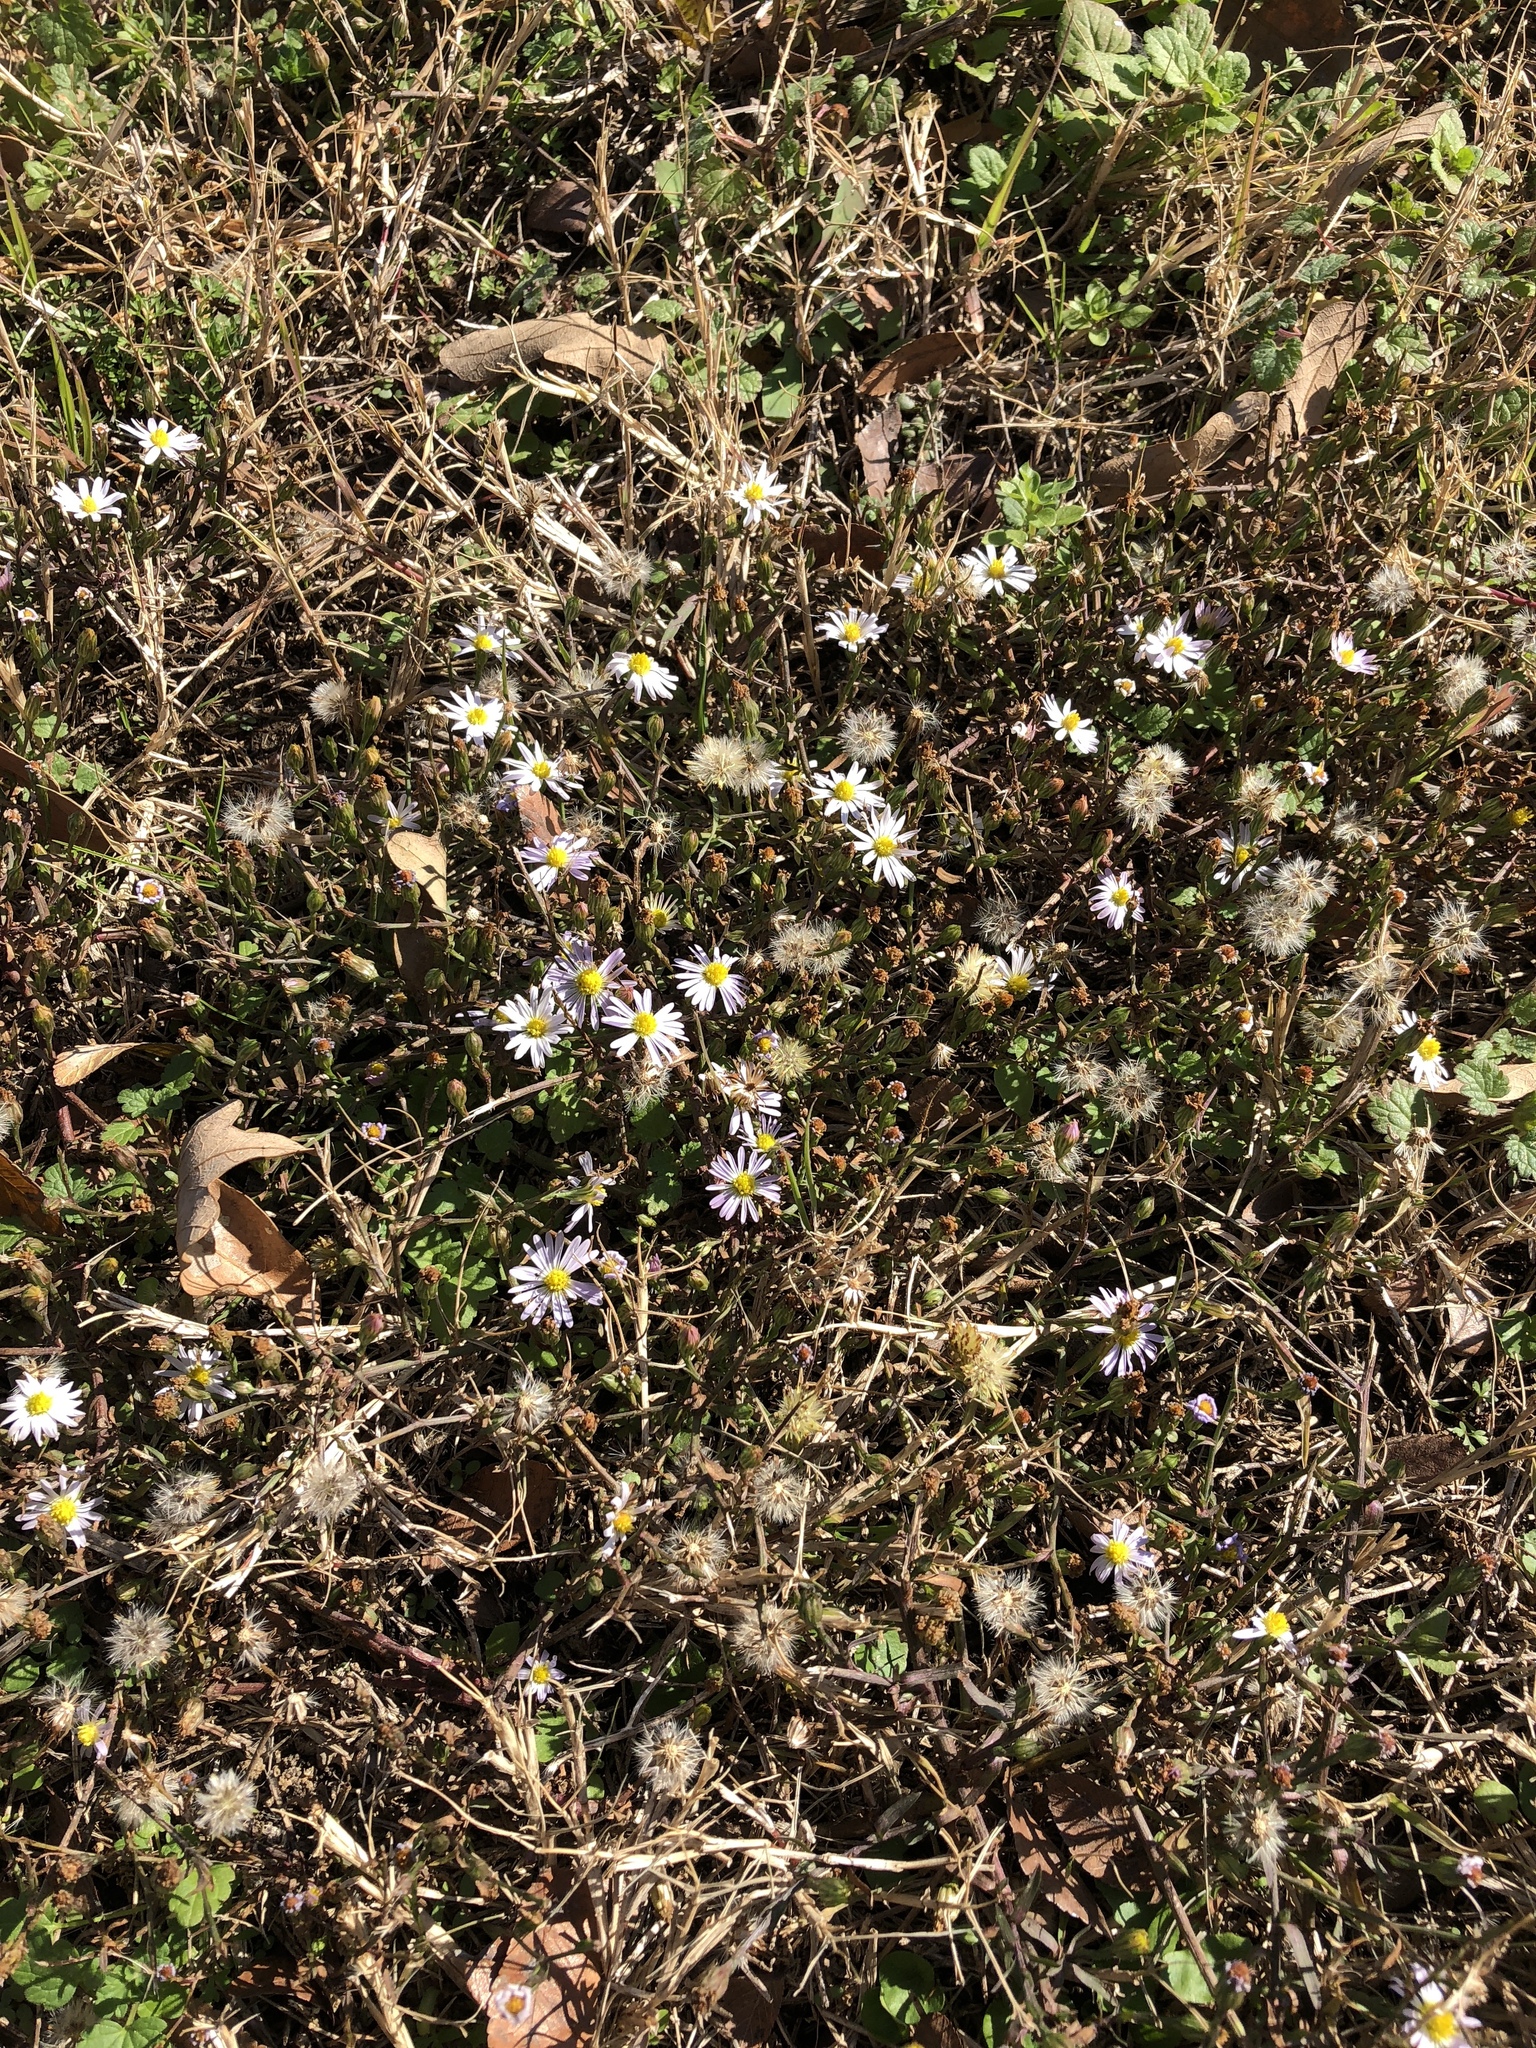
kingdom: Plantae
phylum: Tracheophyta
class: Magnoliopsida
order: Asterales
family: Asteraceae
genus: Symphyotrichum
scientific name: Symphyotrichum divaricatum
